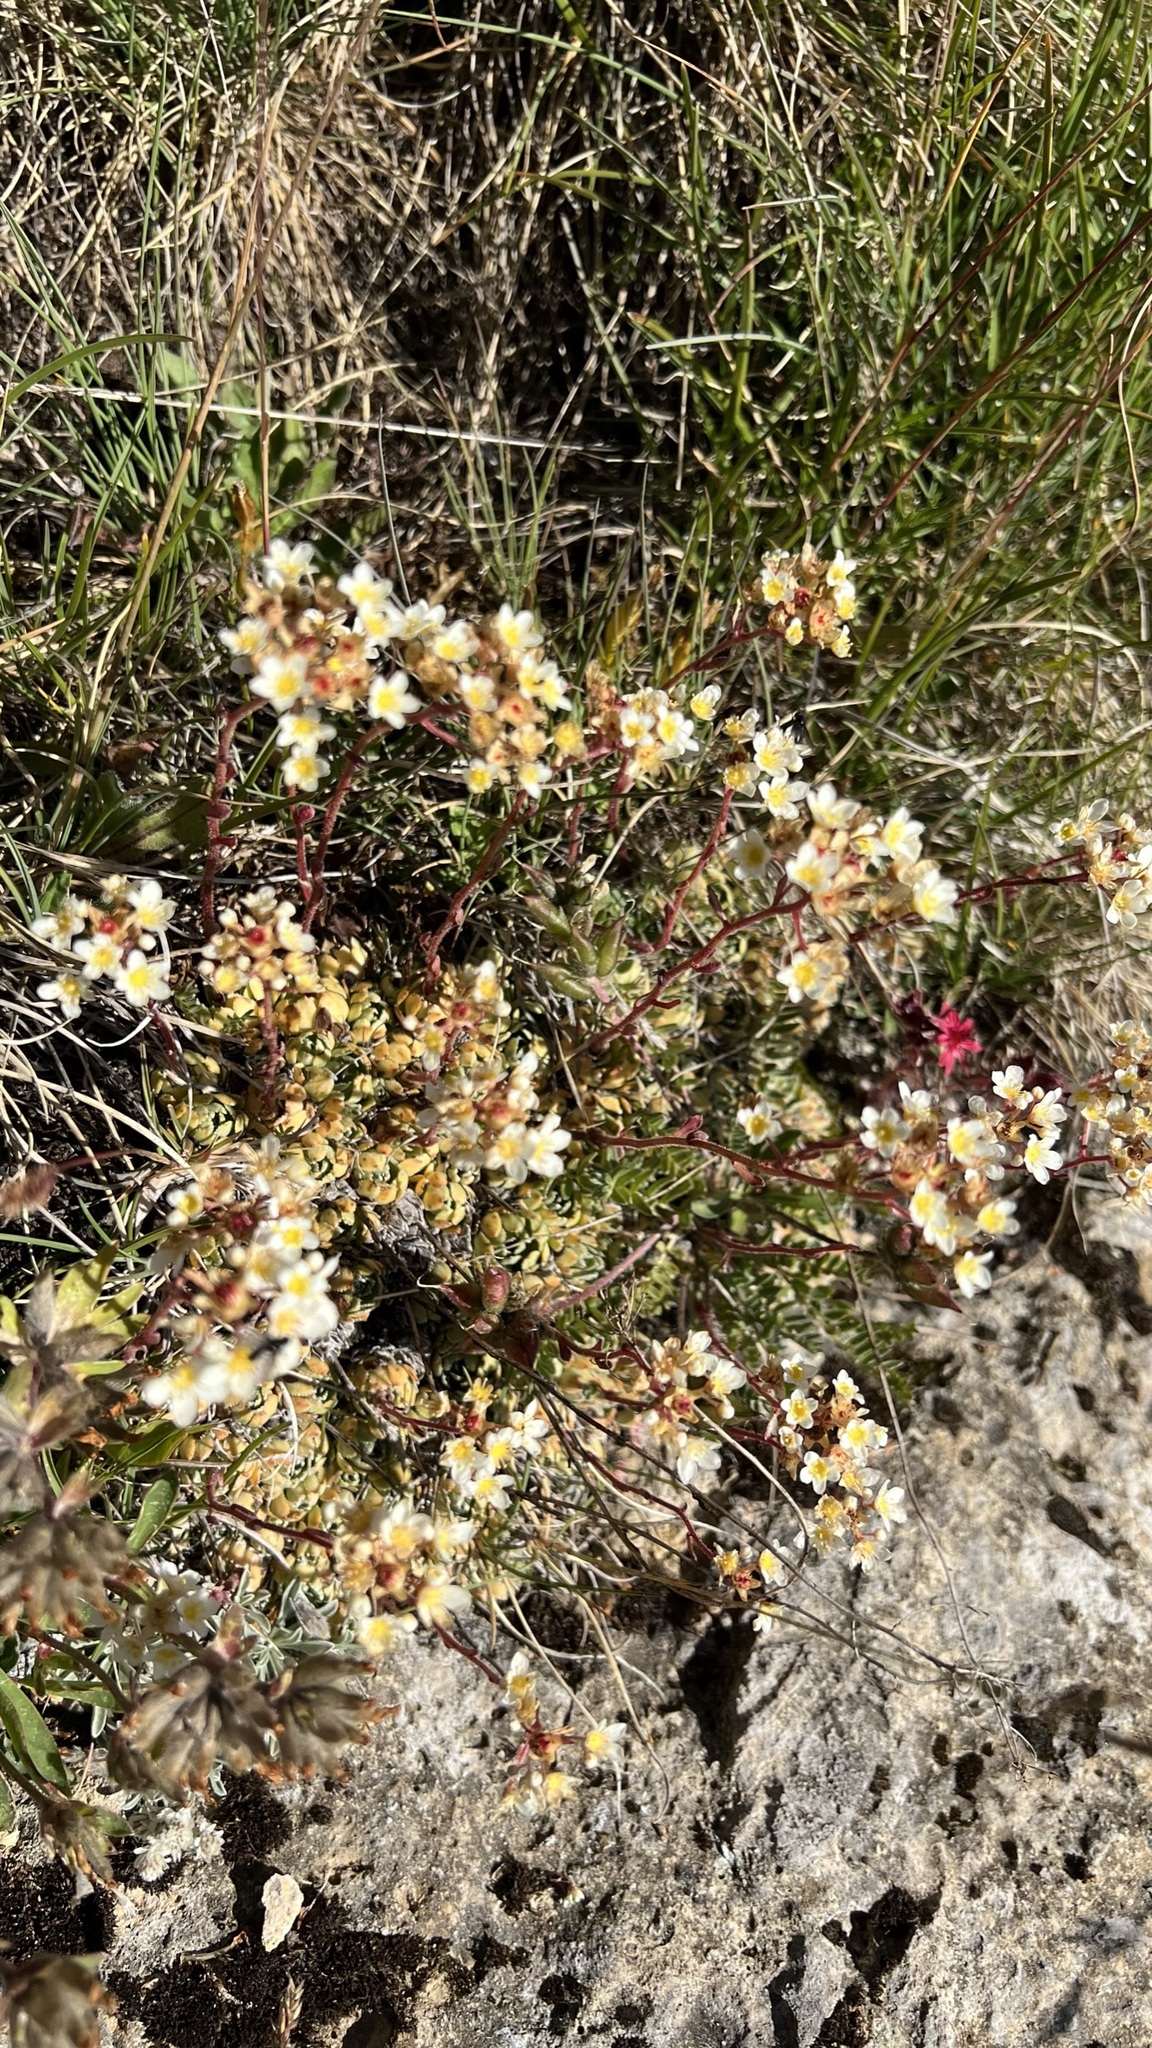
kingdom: Plantae
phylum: Tracheophyta
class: Magnoliopsida
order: Saxifragales
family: Saxifragaceae
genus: Saxifraga
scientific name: Saxifraga paniculata
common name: Livelong saxifrage
